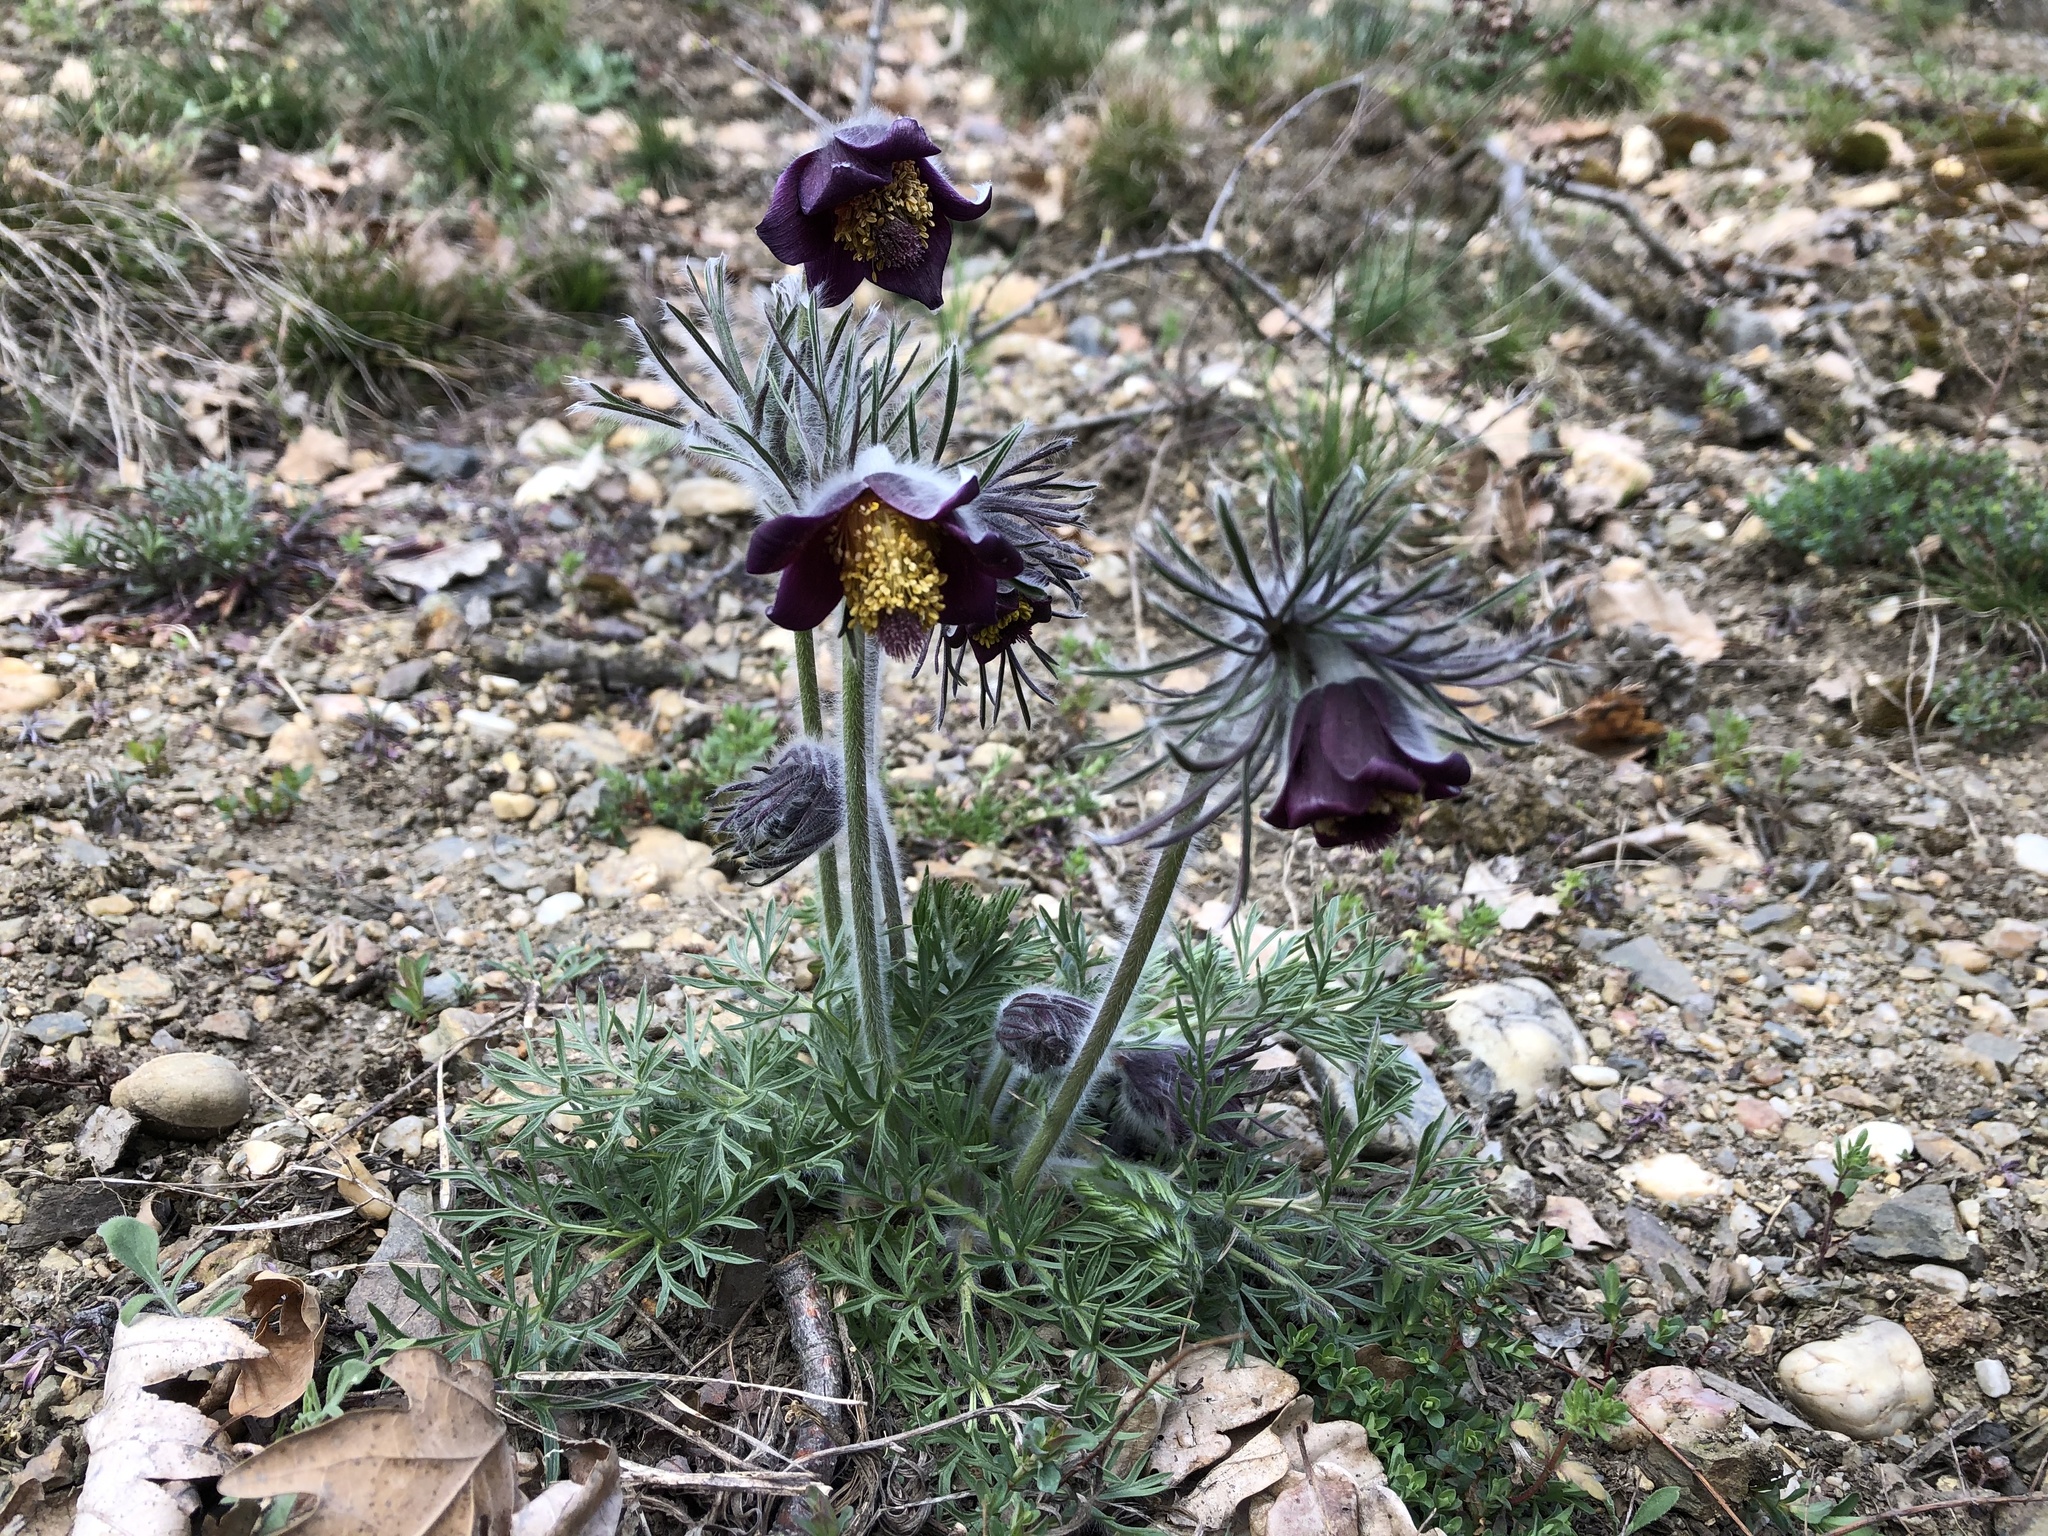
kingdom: Plantae
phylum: Tracheophyta
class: Magnoliopsida
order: Ranunculales
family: Ranunculaceae
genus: Pulsatilla
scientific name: Pulsatilla pratensis
